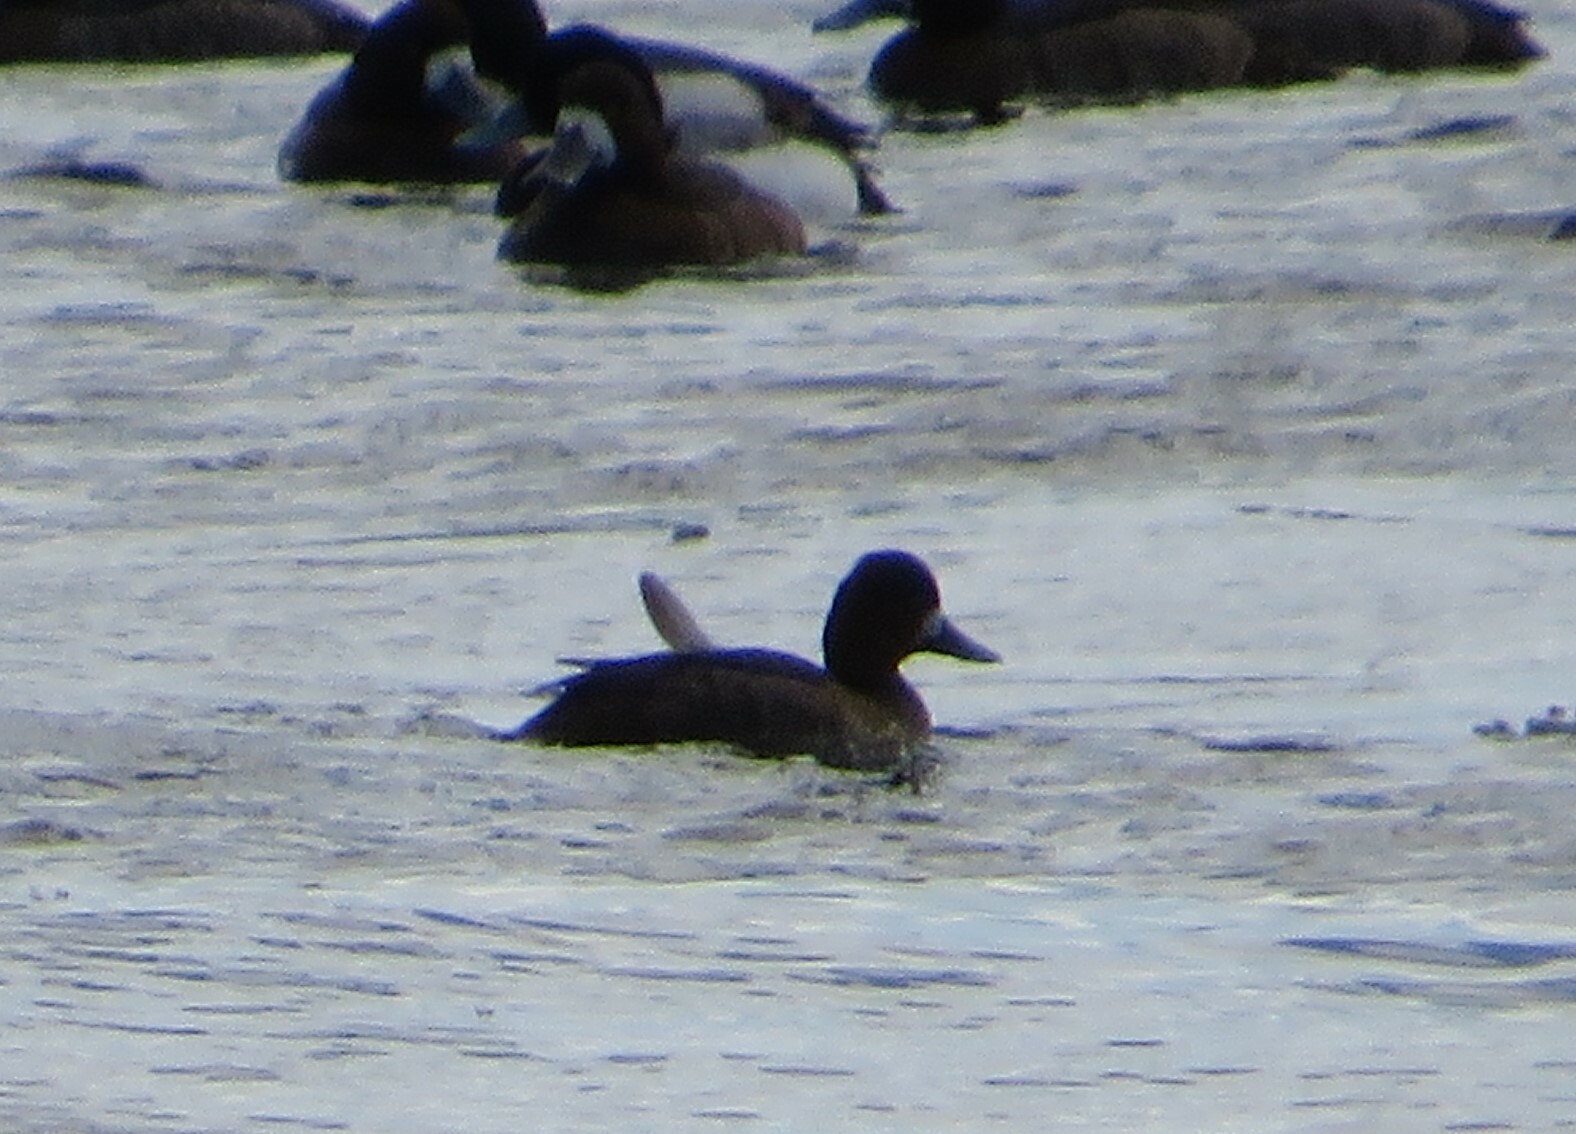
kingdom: Animalia
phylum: Chordata
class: Aves
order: Anseriformes
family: Anatidae
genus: Aythya
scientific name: Aythya affinis
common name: Lesser scaup
